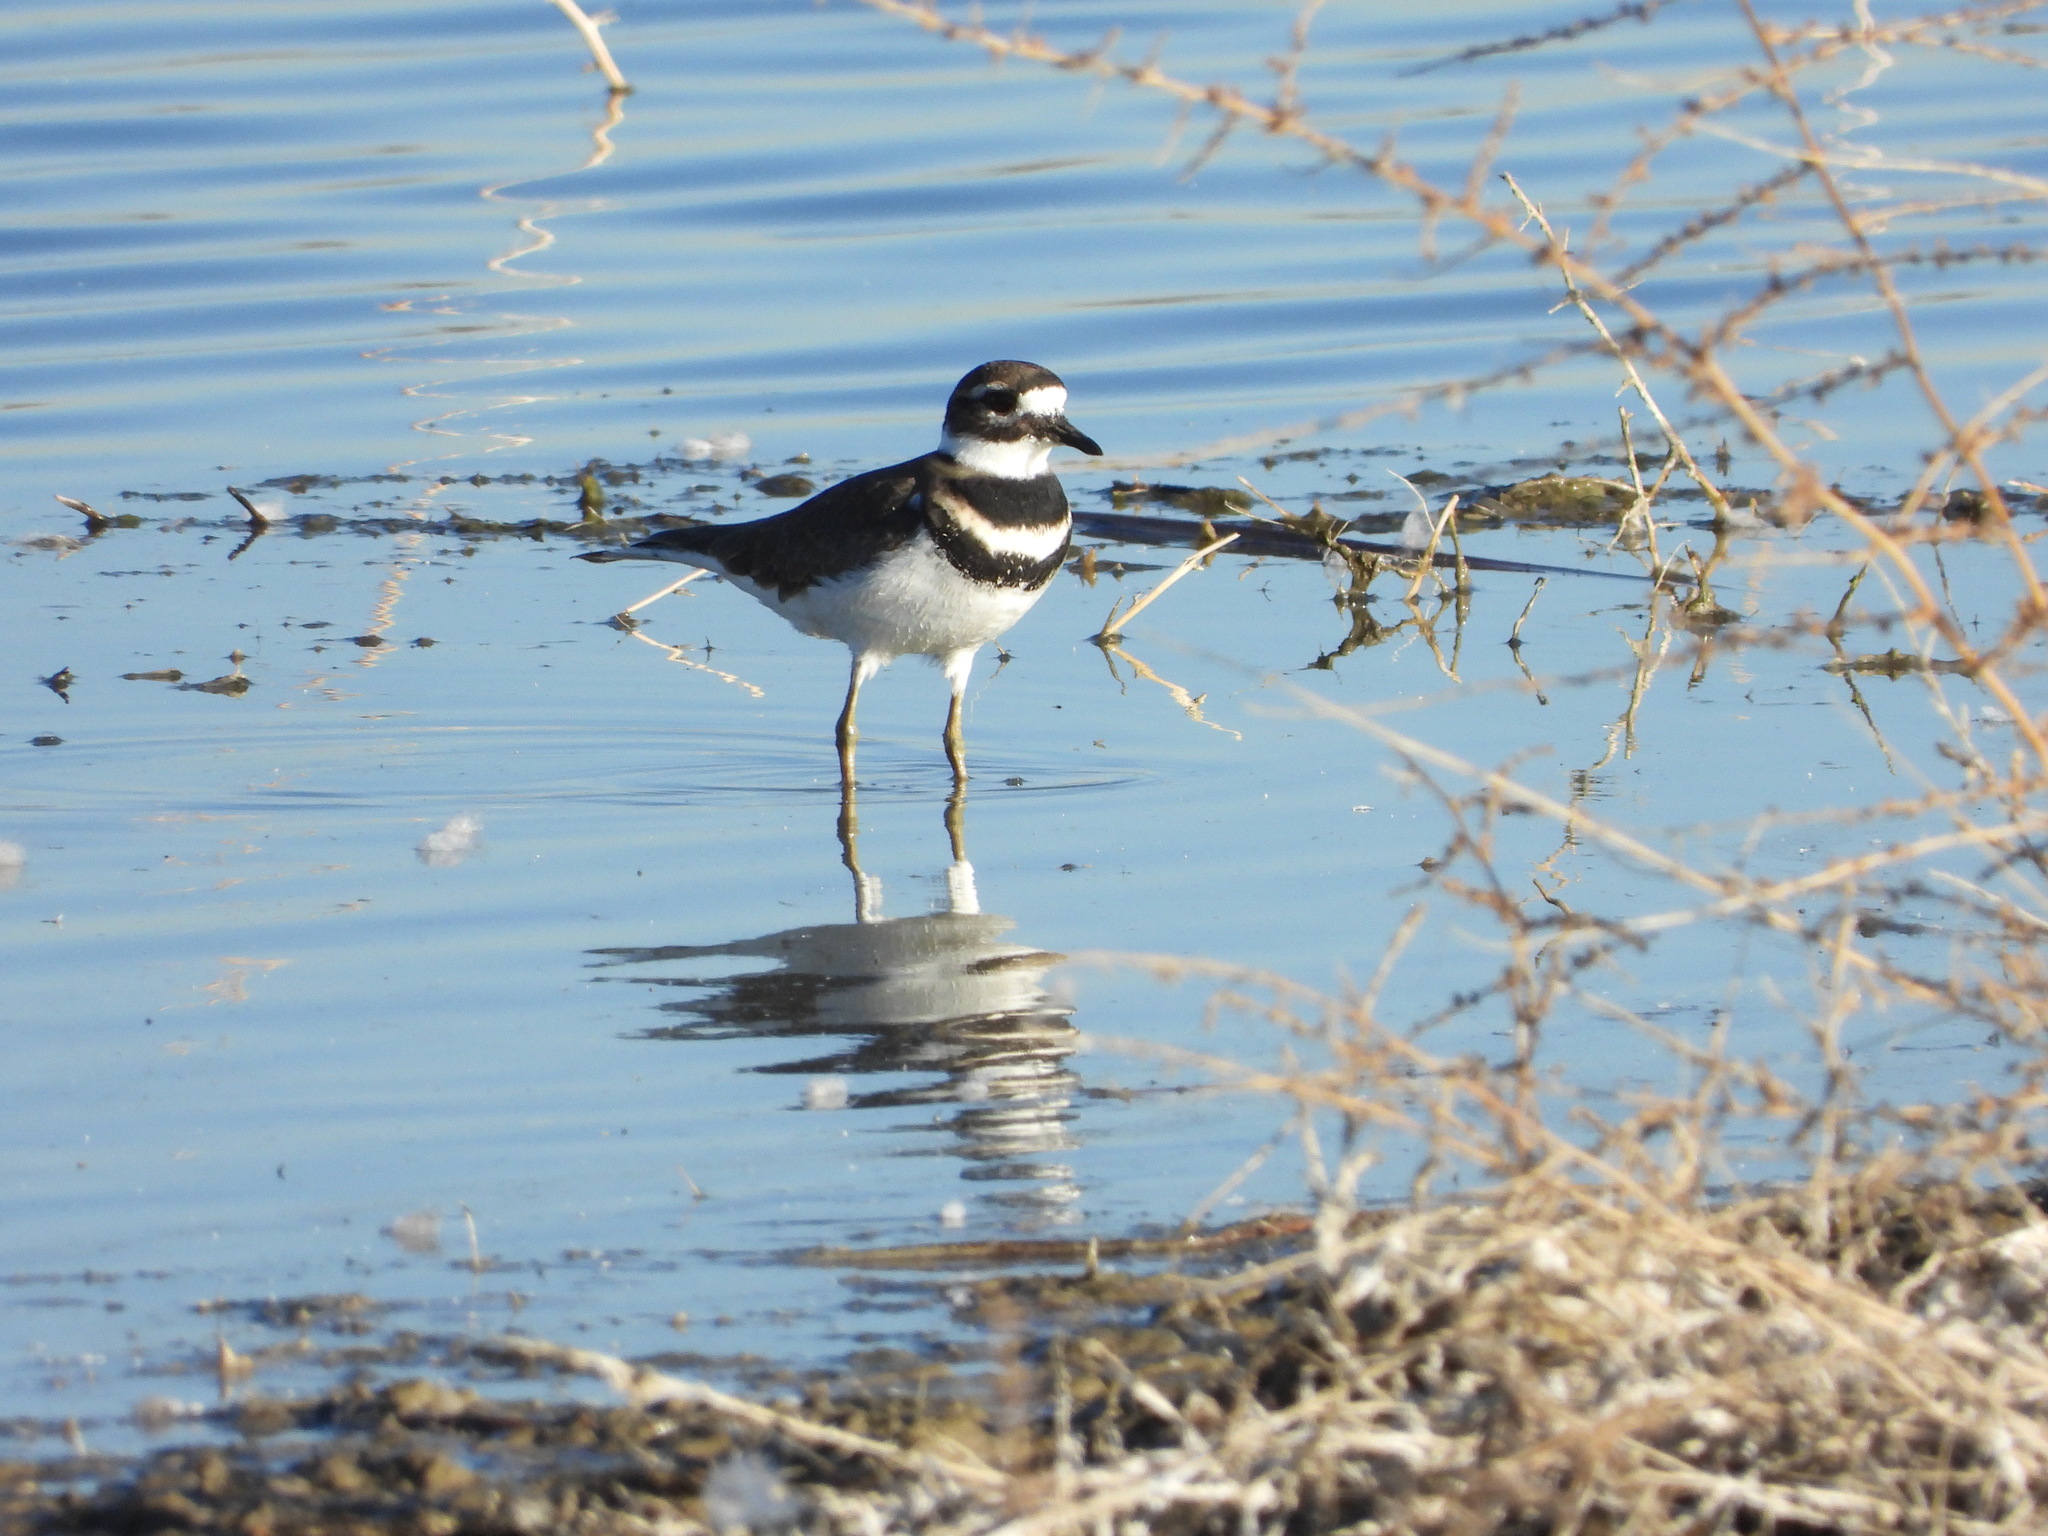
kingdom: Animalia
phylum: Chordata
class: Aves
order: Charadriiformes
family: Charadriidae
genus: Charadrius
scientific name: Charadrius vociferus
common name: Killdeer
